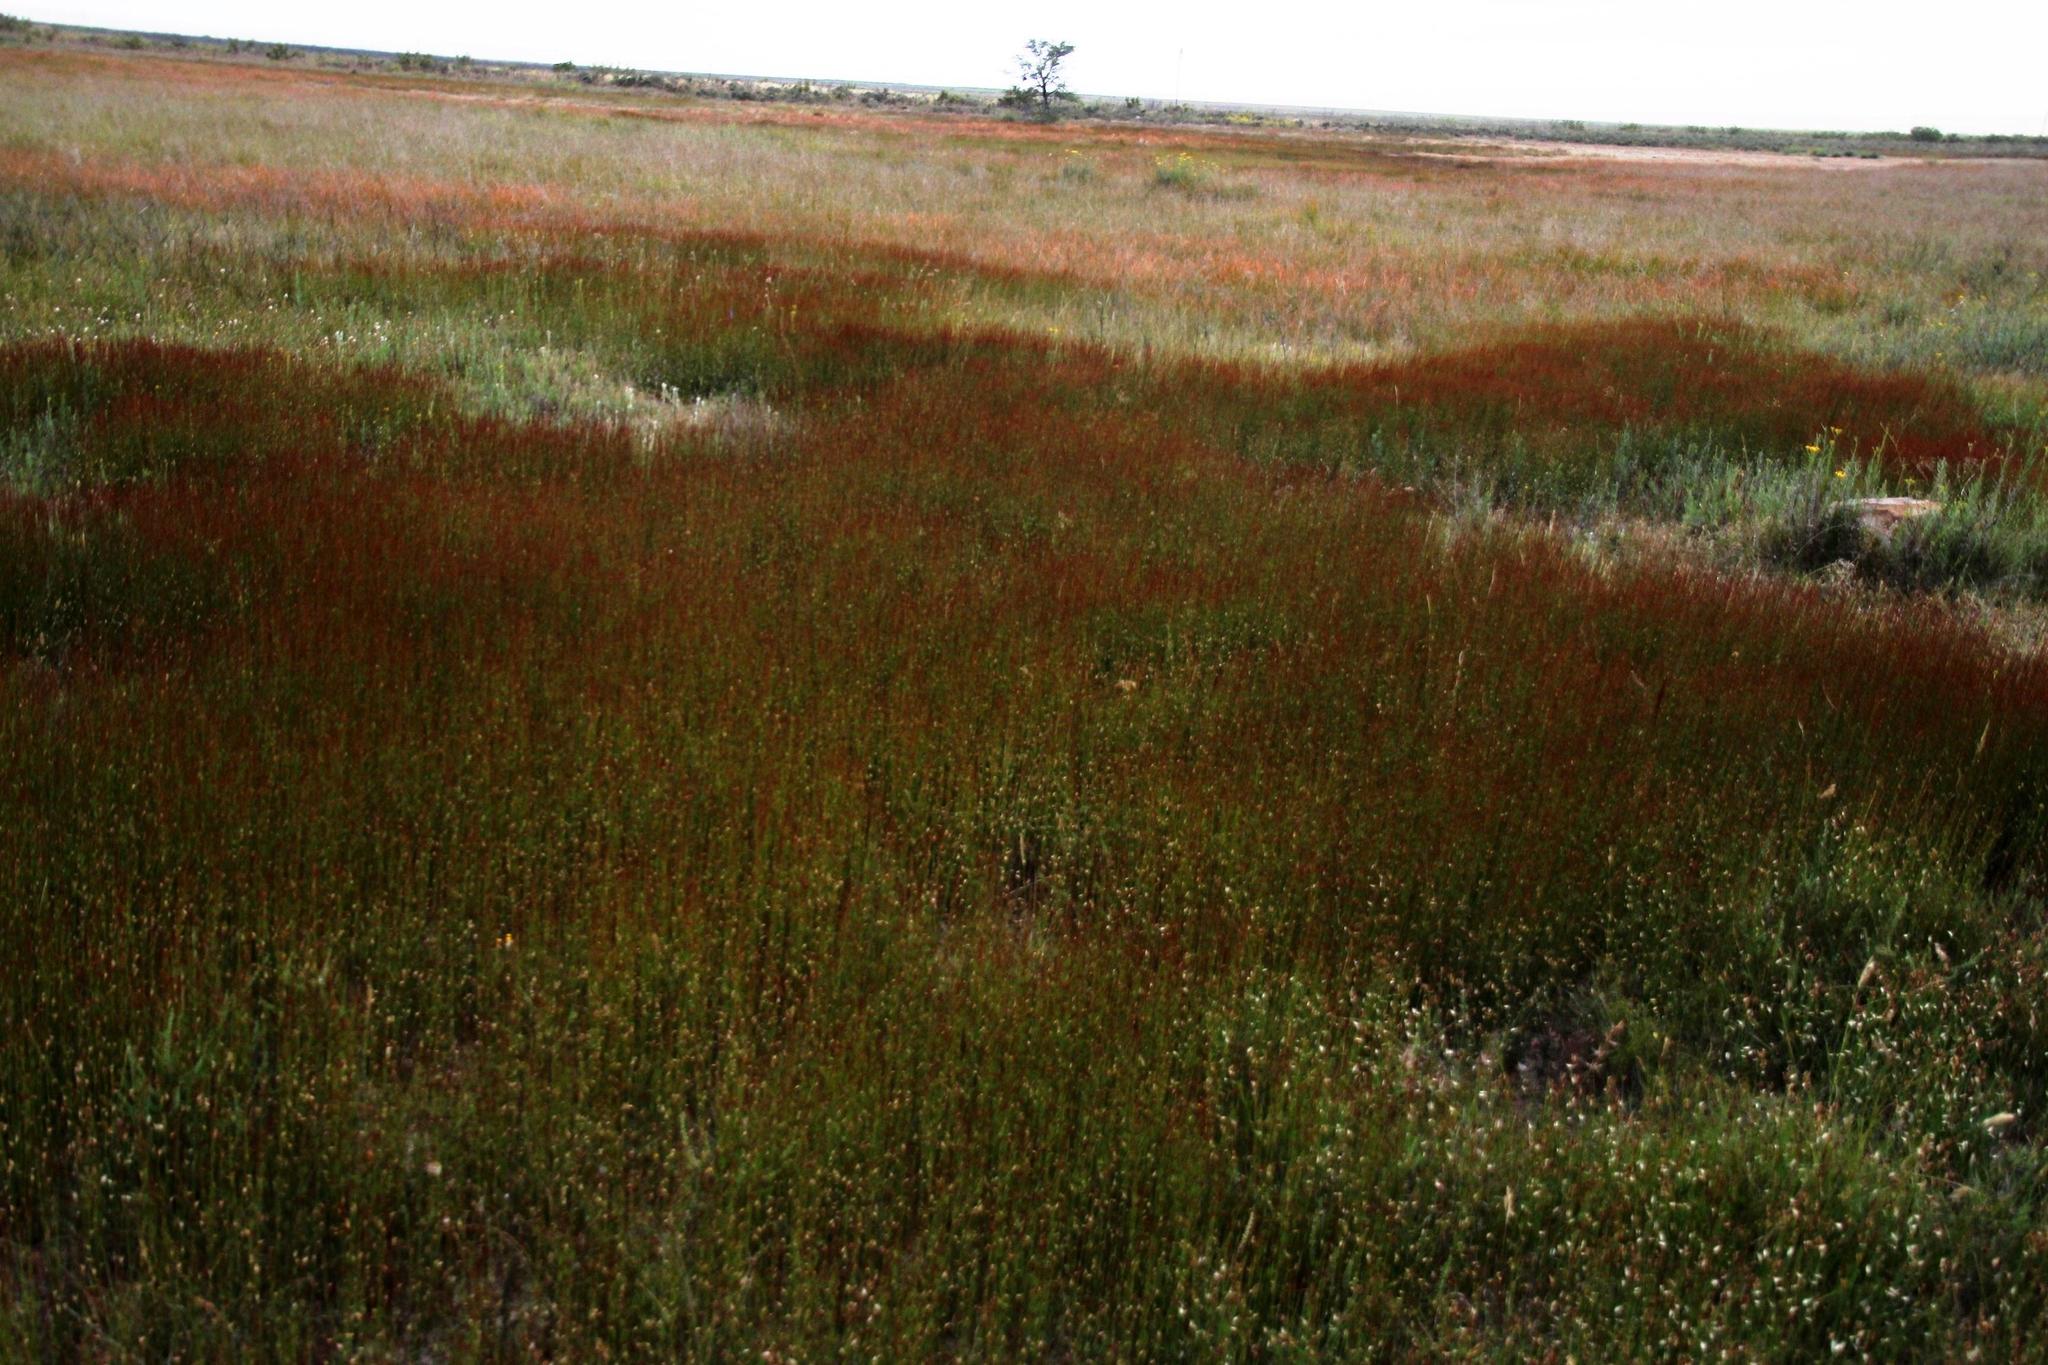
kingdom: Plantae
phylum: Tracheophyta
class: Liliopsida
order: Poales
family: Restionaceae
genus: Elegia
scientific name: Elegia recta
